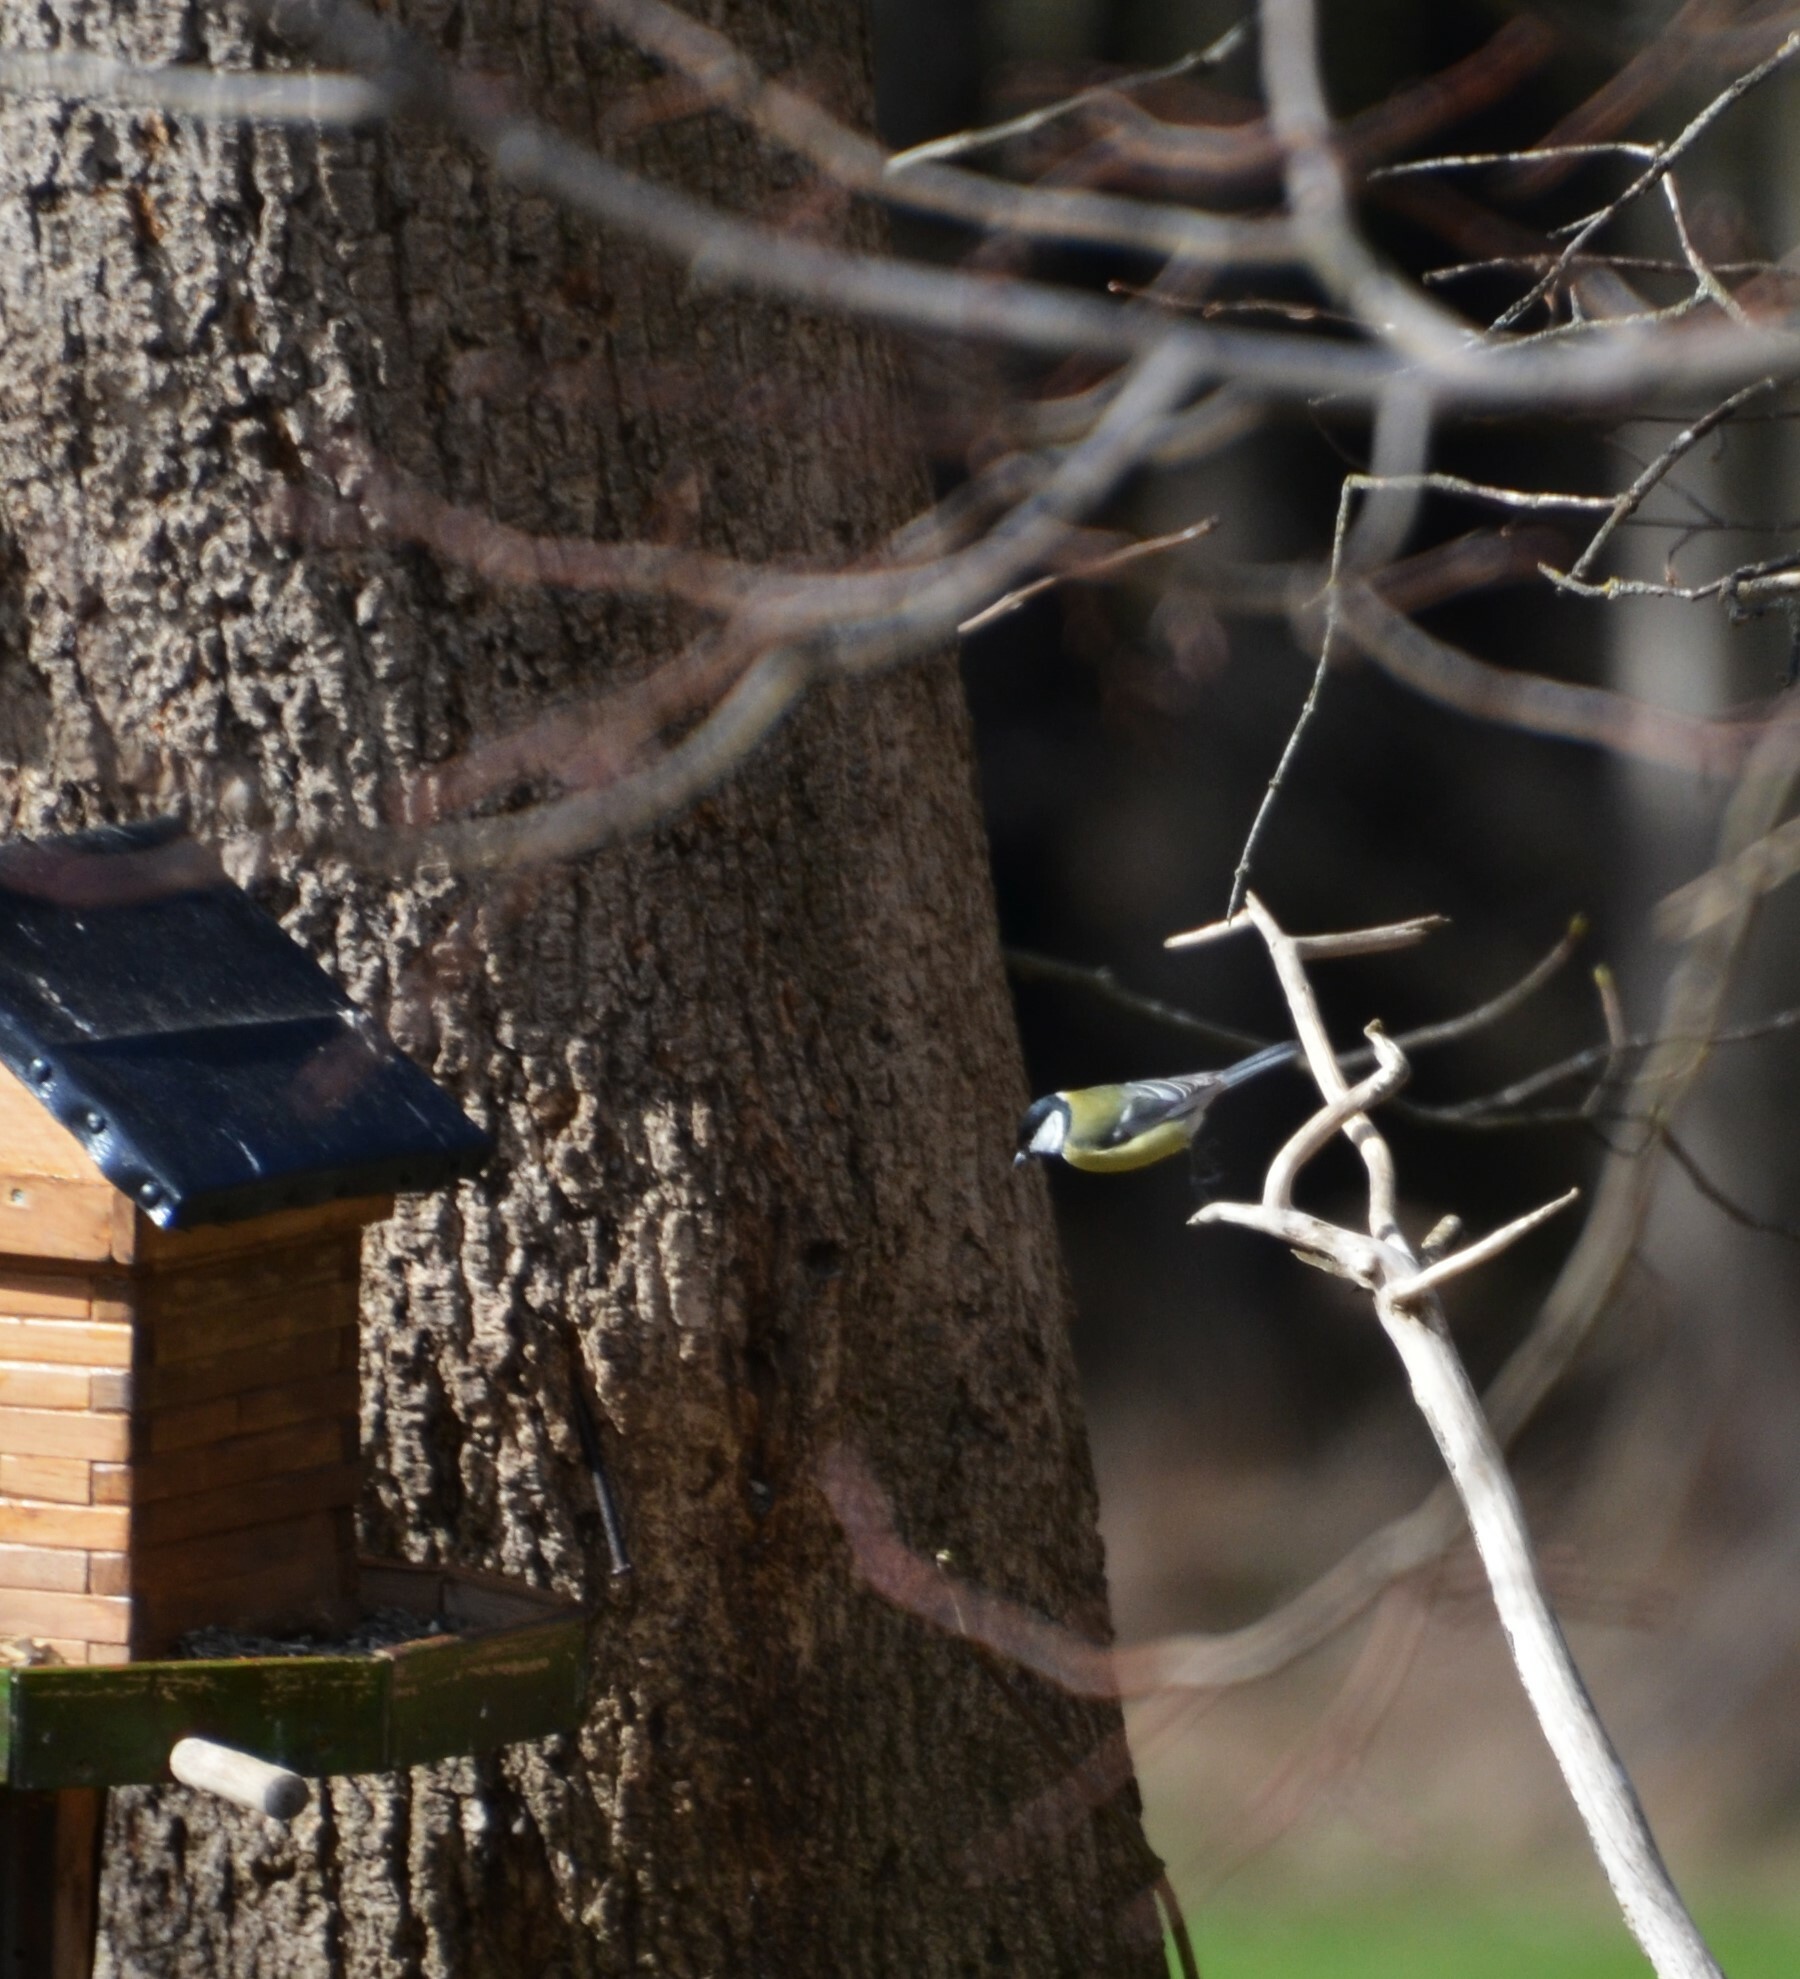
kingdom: Animalia
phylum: Chordata
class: Aves
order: Passeriformes
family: Paridae
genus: Parus
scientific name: Parus major
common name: Great tit
